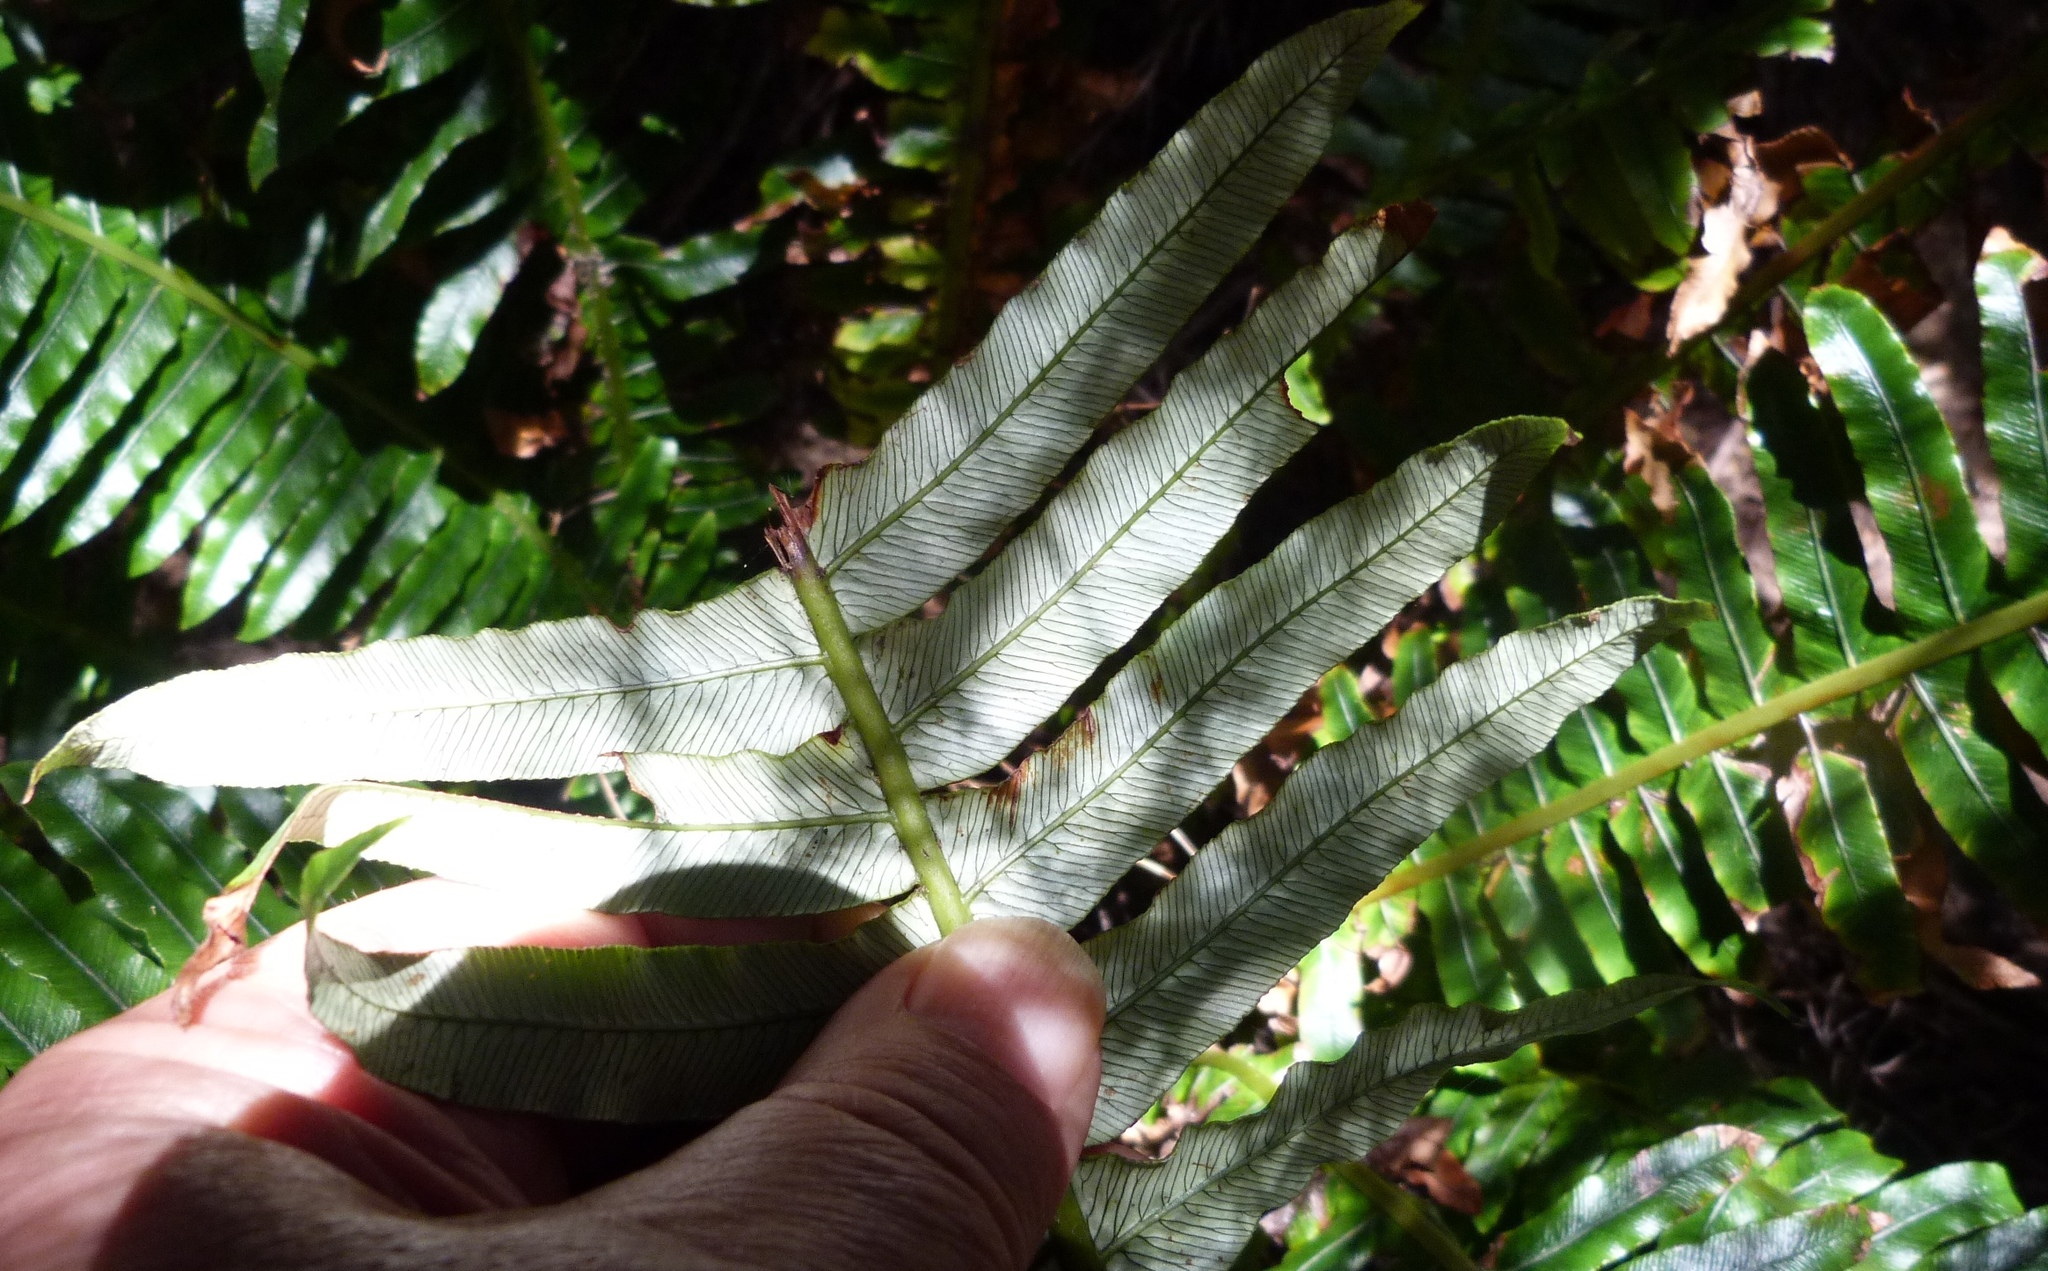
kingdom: Plantae
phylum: Tracheophyta
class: Polypodiopsida
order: Polypodiales
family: Blechnaceae
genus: Lomaria
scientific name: Lomaria discolor
